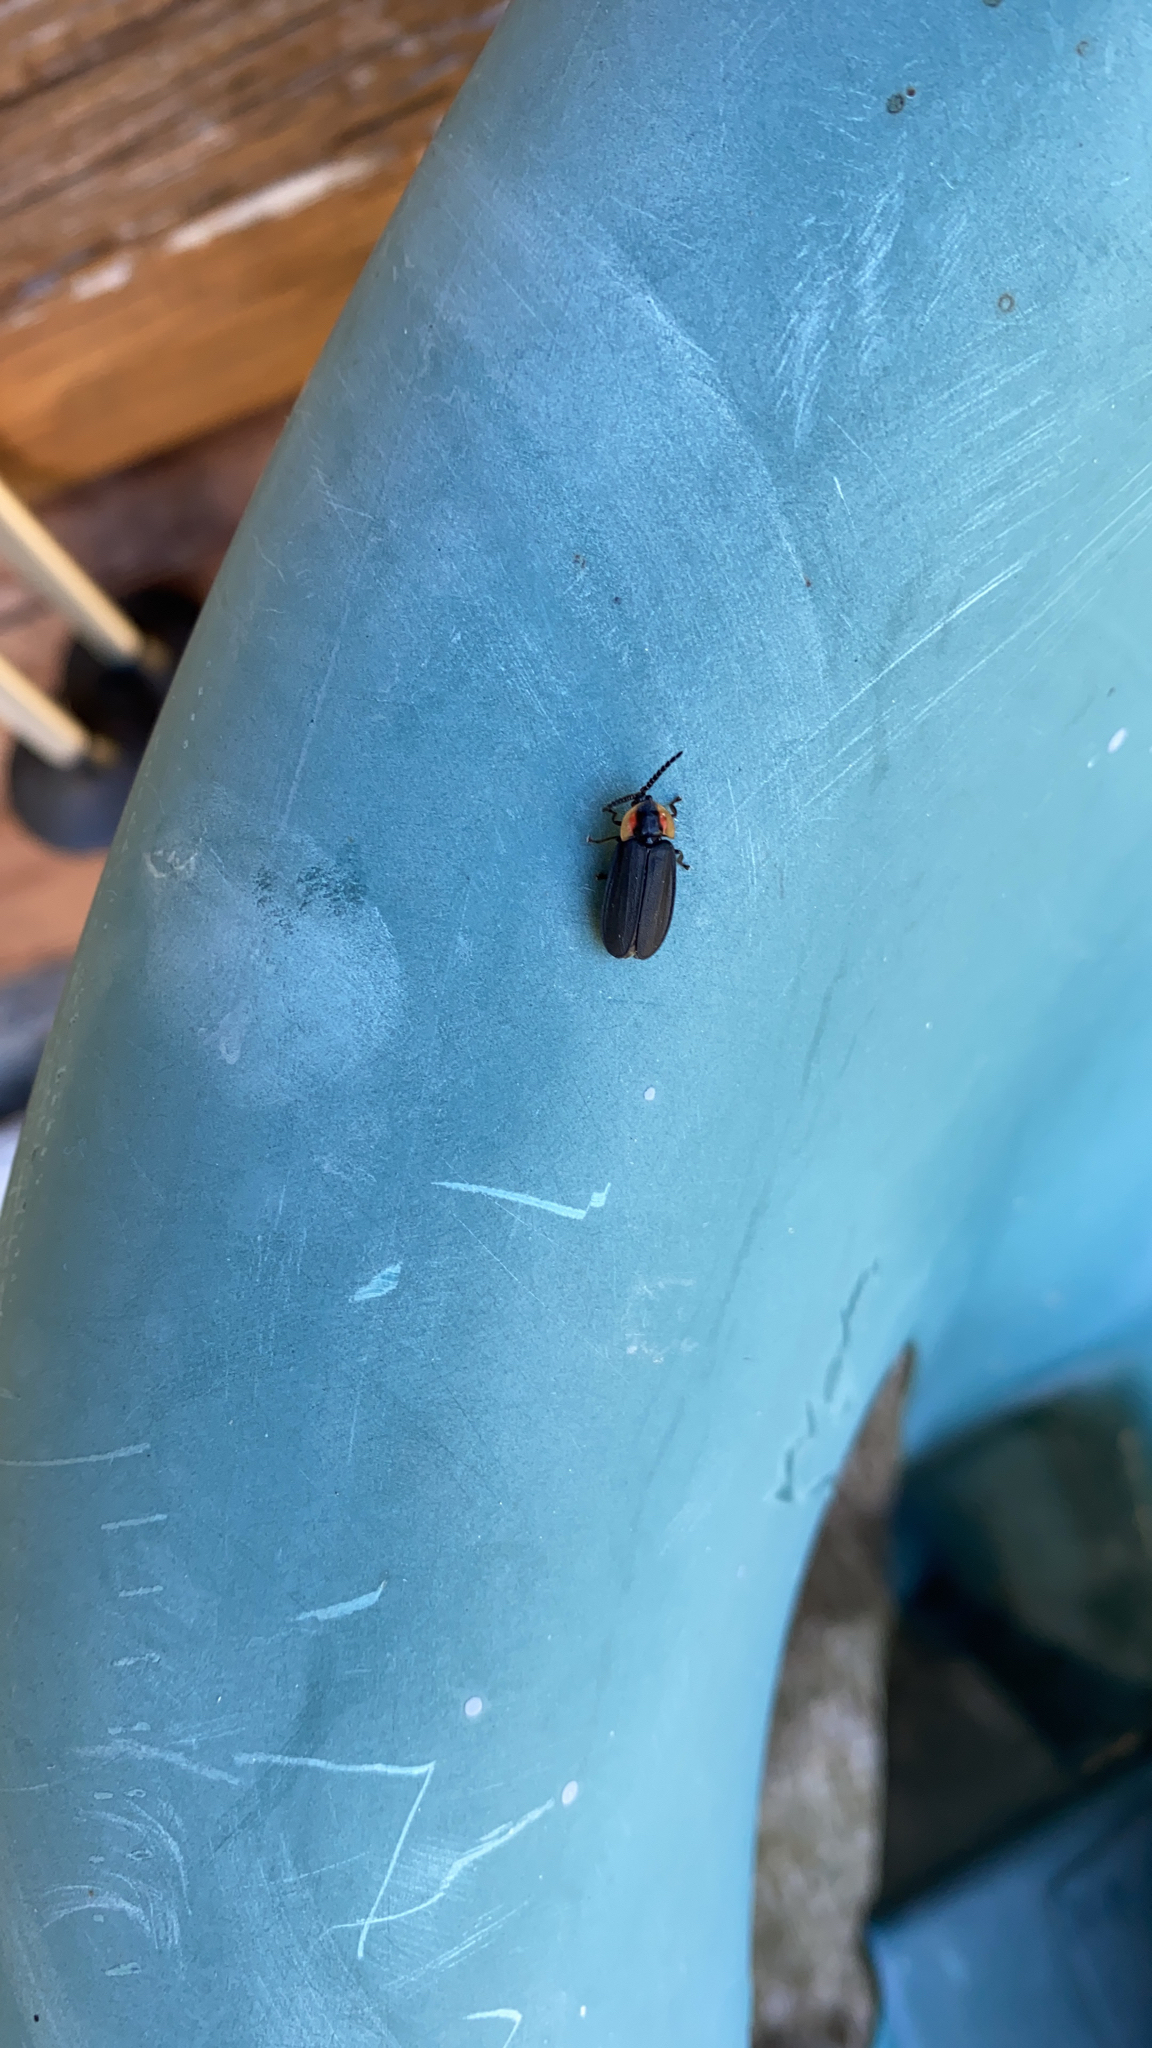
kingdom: Animalia
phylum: Arthropoda
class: Insecta
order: Coleoptera
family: Lampyridae
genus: Lucidota
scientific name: Lucidota atra
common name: Black firefly
